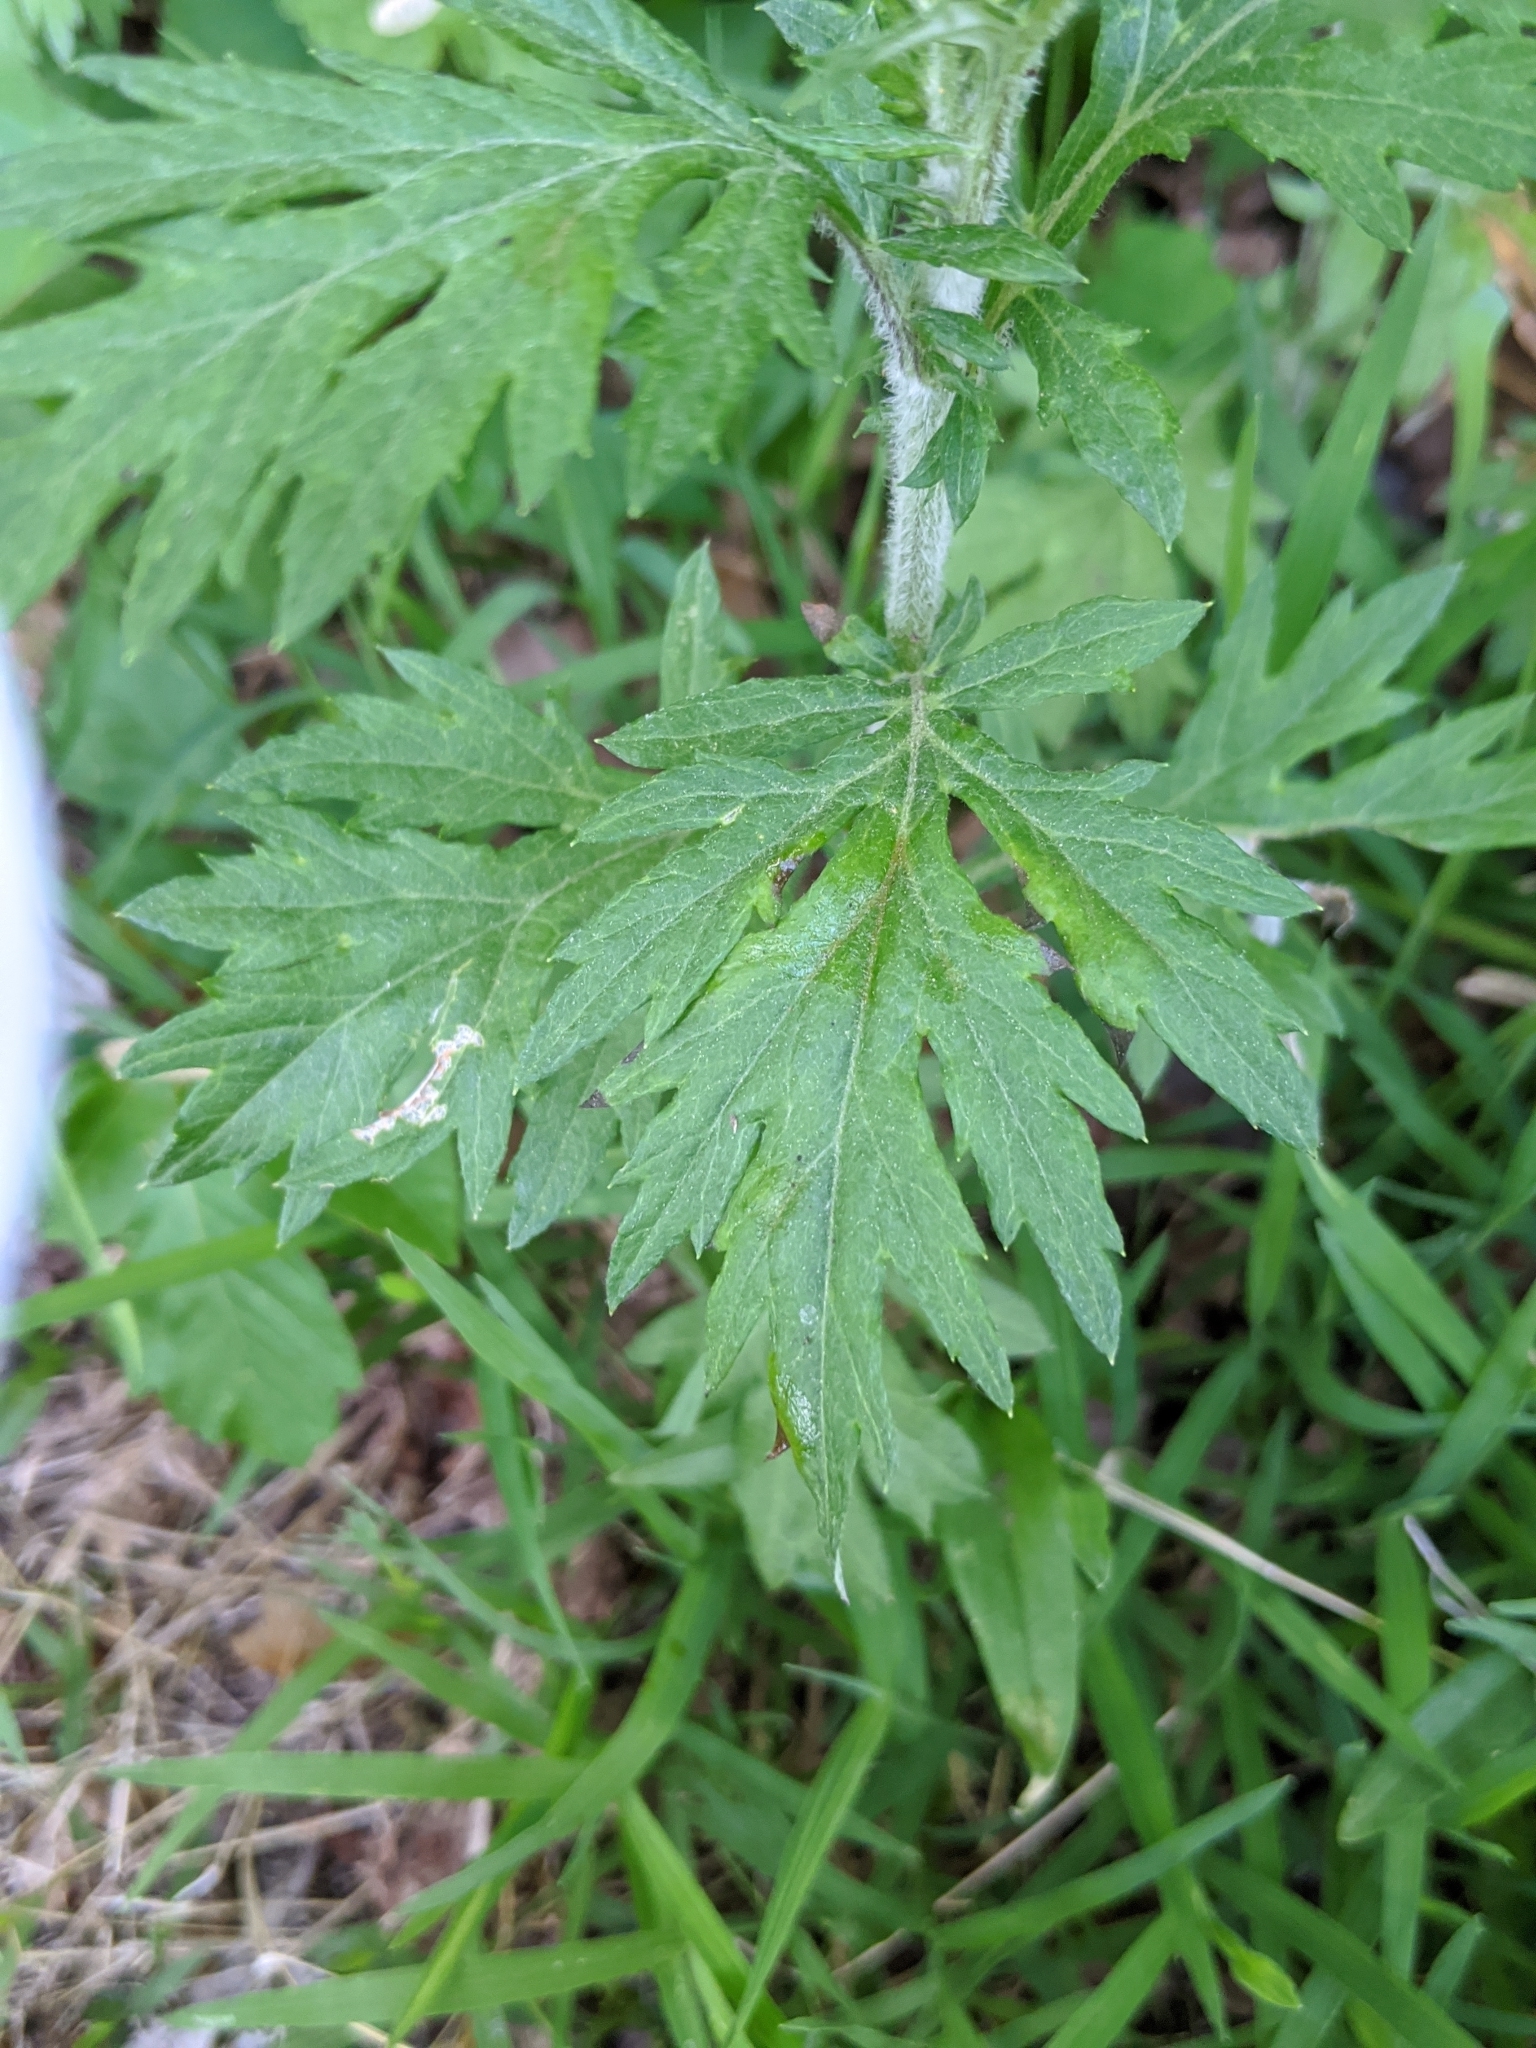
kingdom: Plantae
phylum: Tracheophyta
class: Magnoliopsida
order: Asterales
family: Asteraceae
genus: Artemisia
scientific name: Artemisia vulgaris
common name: Mugwort
